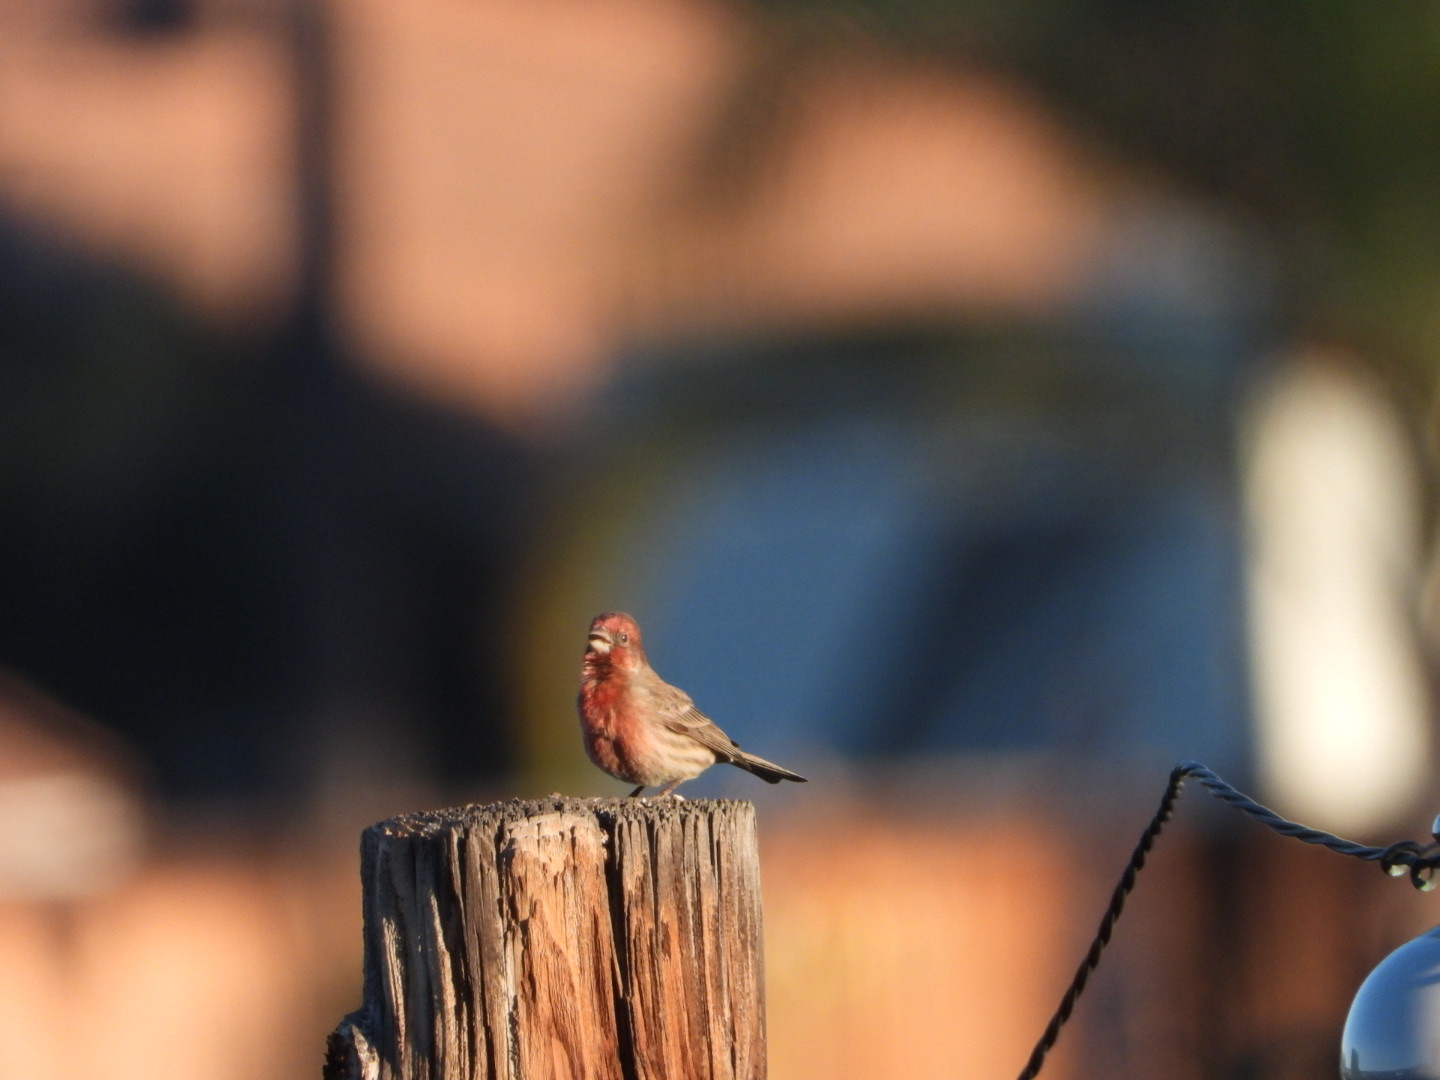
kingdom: Animalia
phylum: Chordata
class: Aves
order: Passeriformes
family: Fringillidae
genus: Haemorhous
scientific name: Haemorhous mexicanus
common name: House finch
